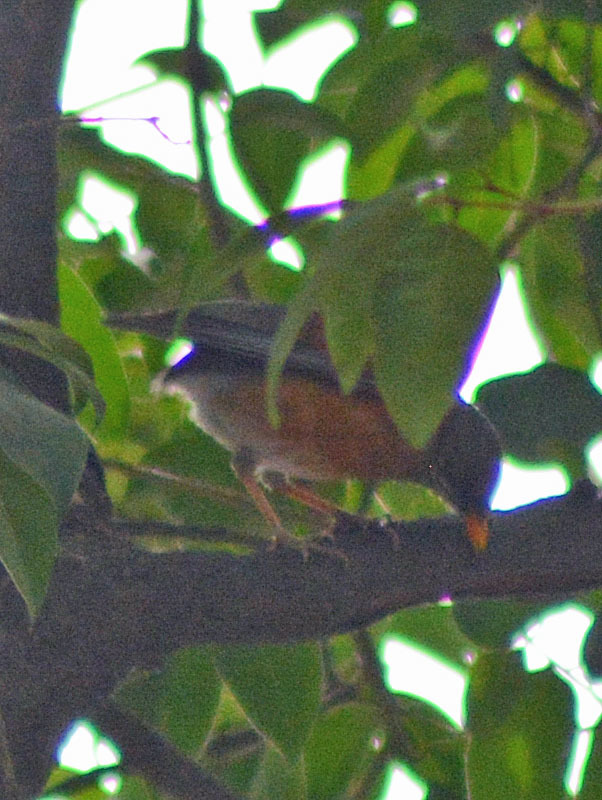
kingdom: Animalia
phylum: Chordata
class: Aves
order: Passeriformes
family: Turdidae
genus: Turdus
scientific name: Turdus rufopalliatus
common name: Rufous-backed robin
